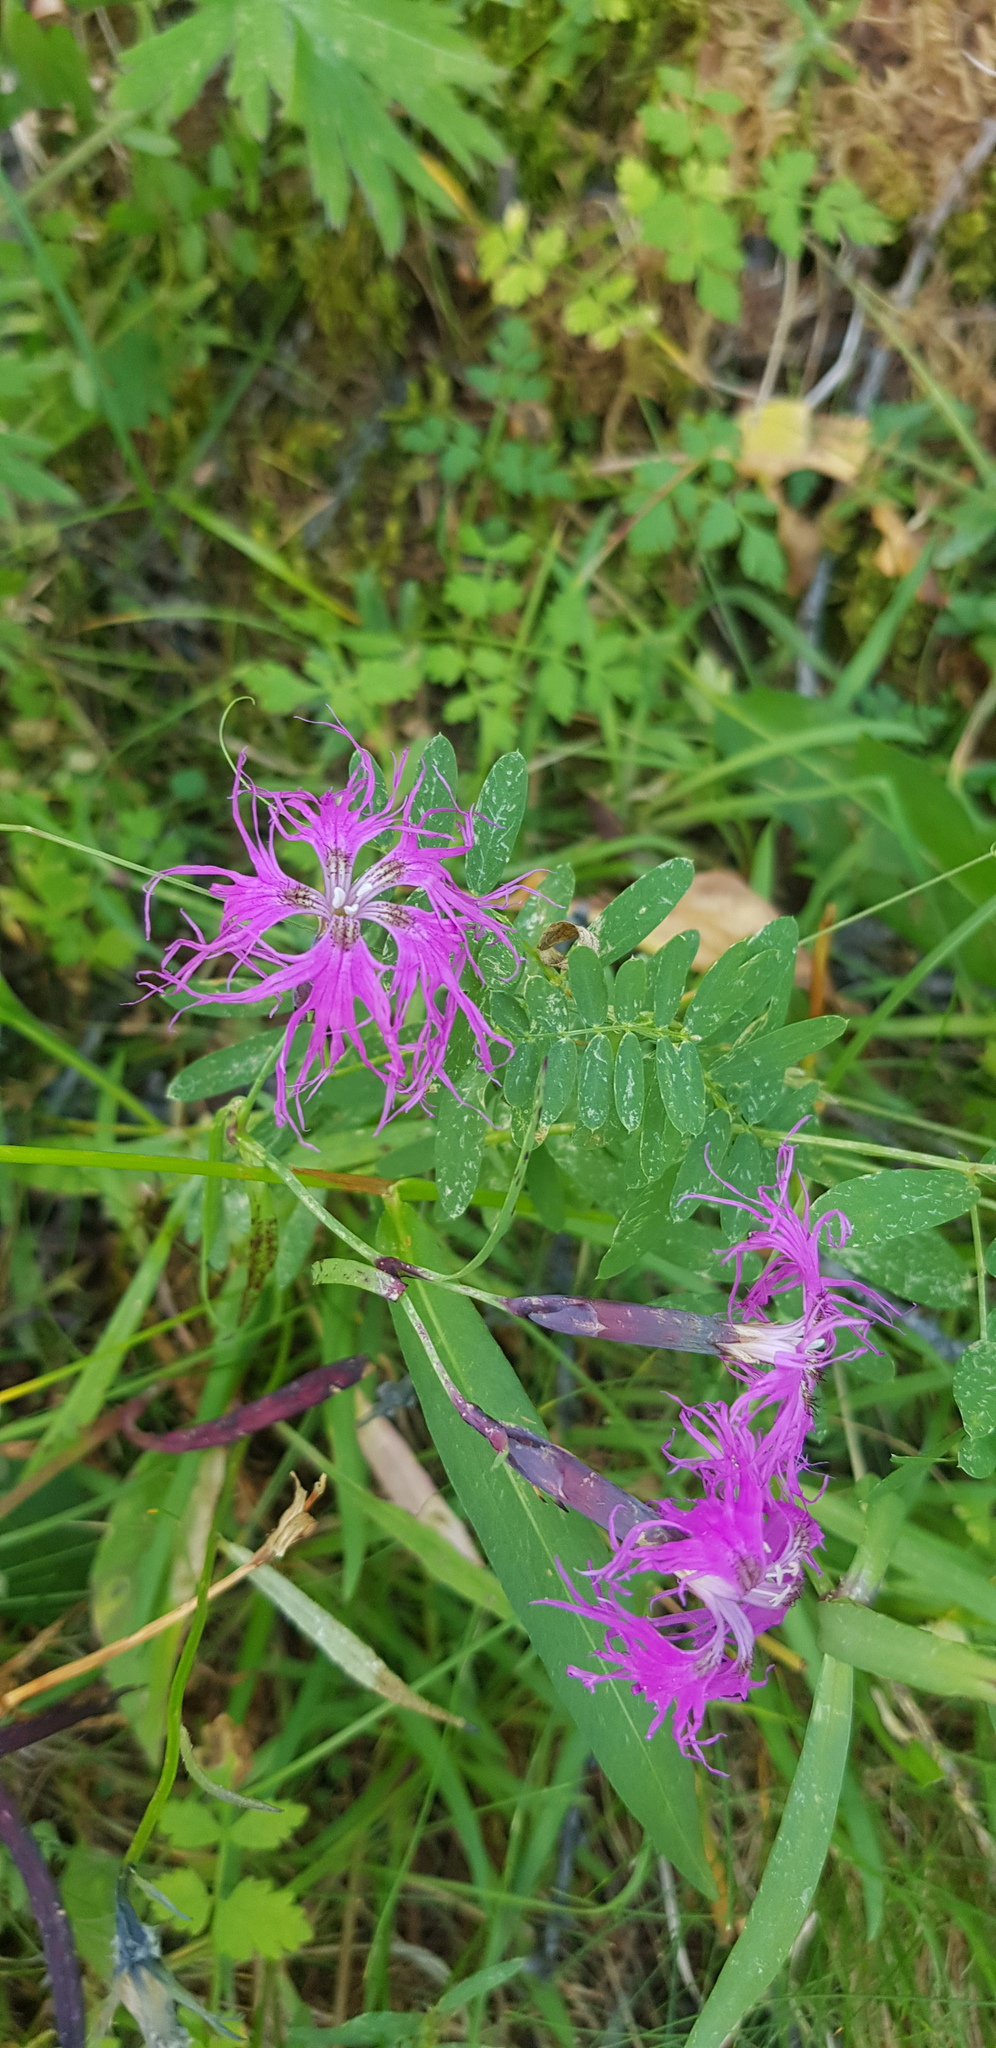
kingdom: Plantae
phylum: Tracheophyta
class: Magnoliopsida
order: Caryophyllales
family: Caryophyllaceae
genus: Dianthus
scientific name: Dianthus superbus
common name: Fringed pink
